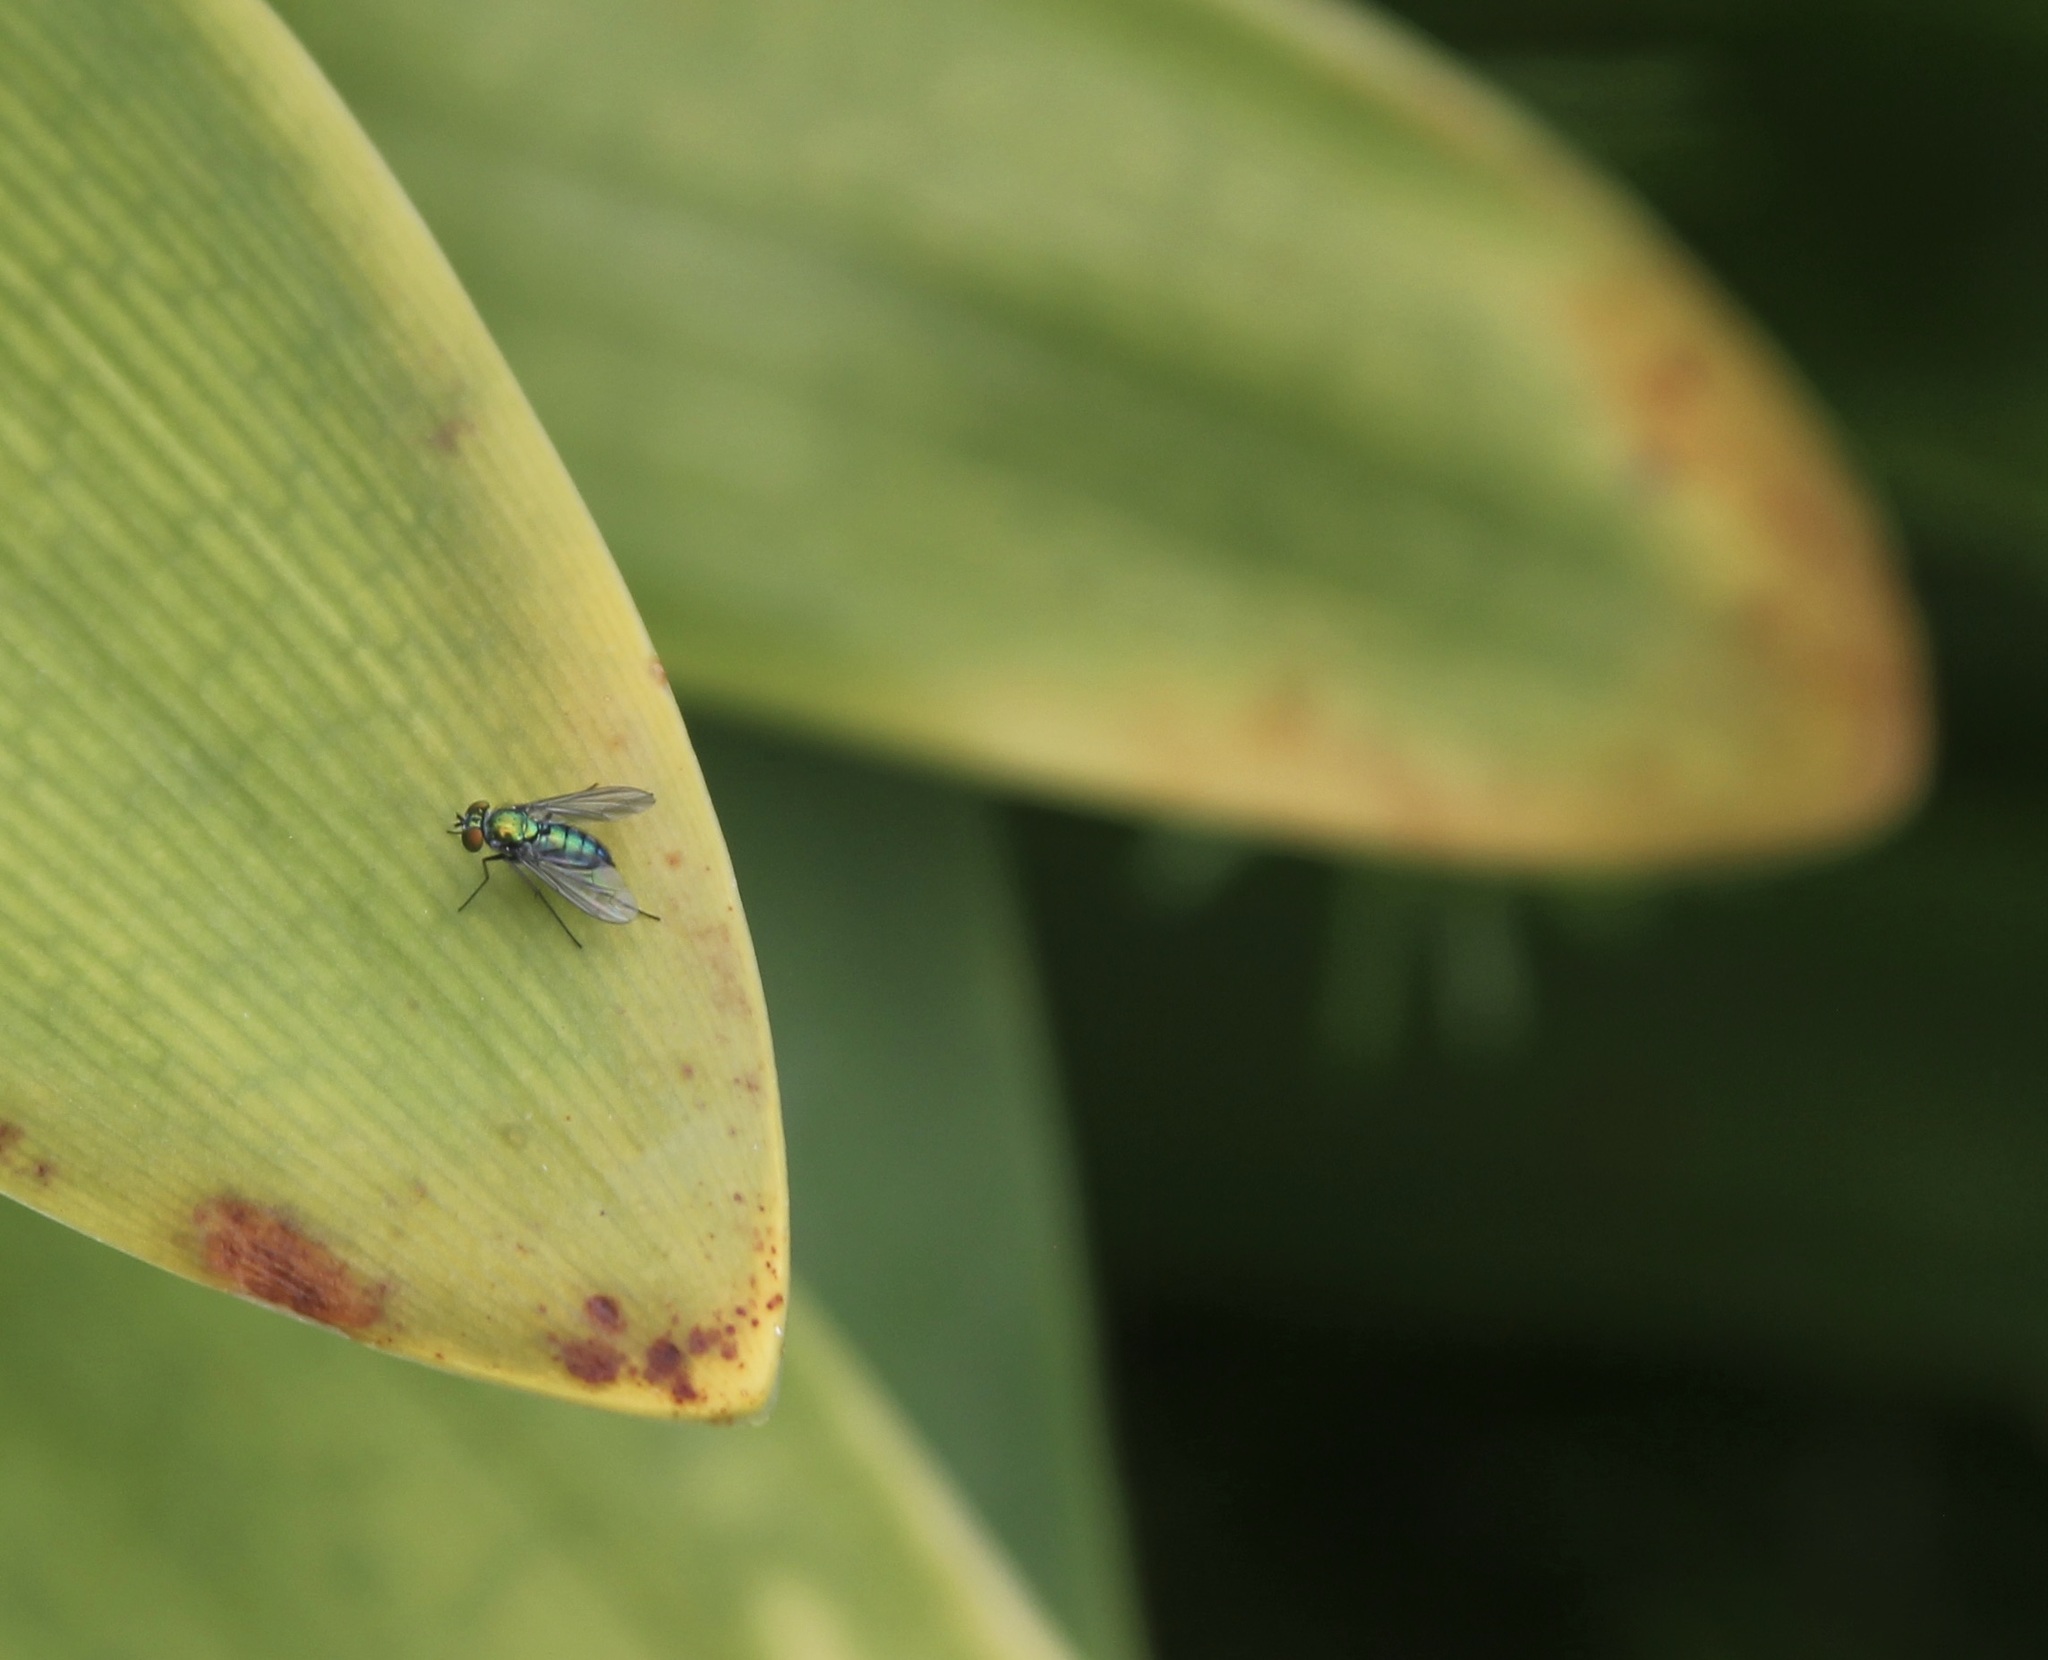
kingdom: Animalia
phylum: Arthropoda
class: Insecta
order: Diptera
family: Dolichopodidae
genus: Condylostylus
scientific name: Condylostylus longicornis
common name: Long-legged fly
